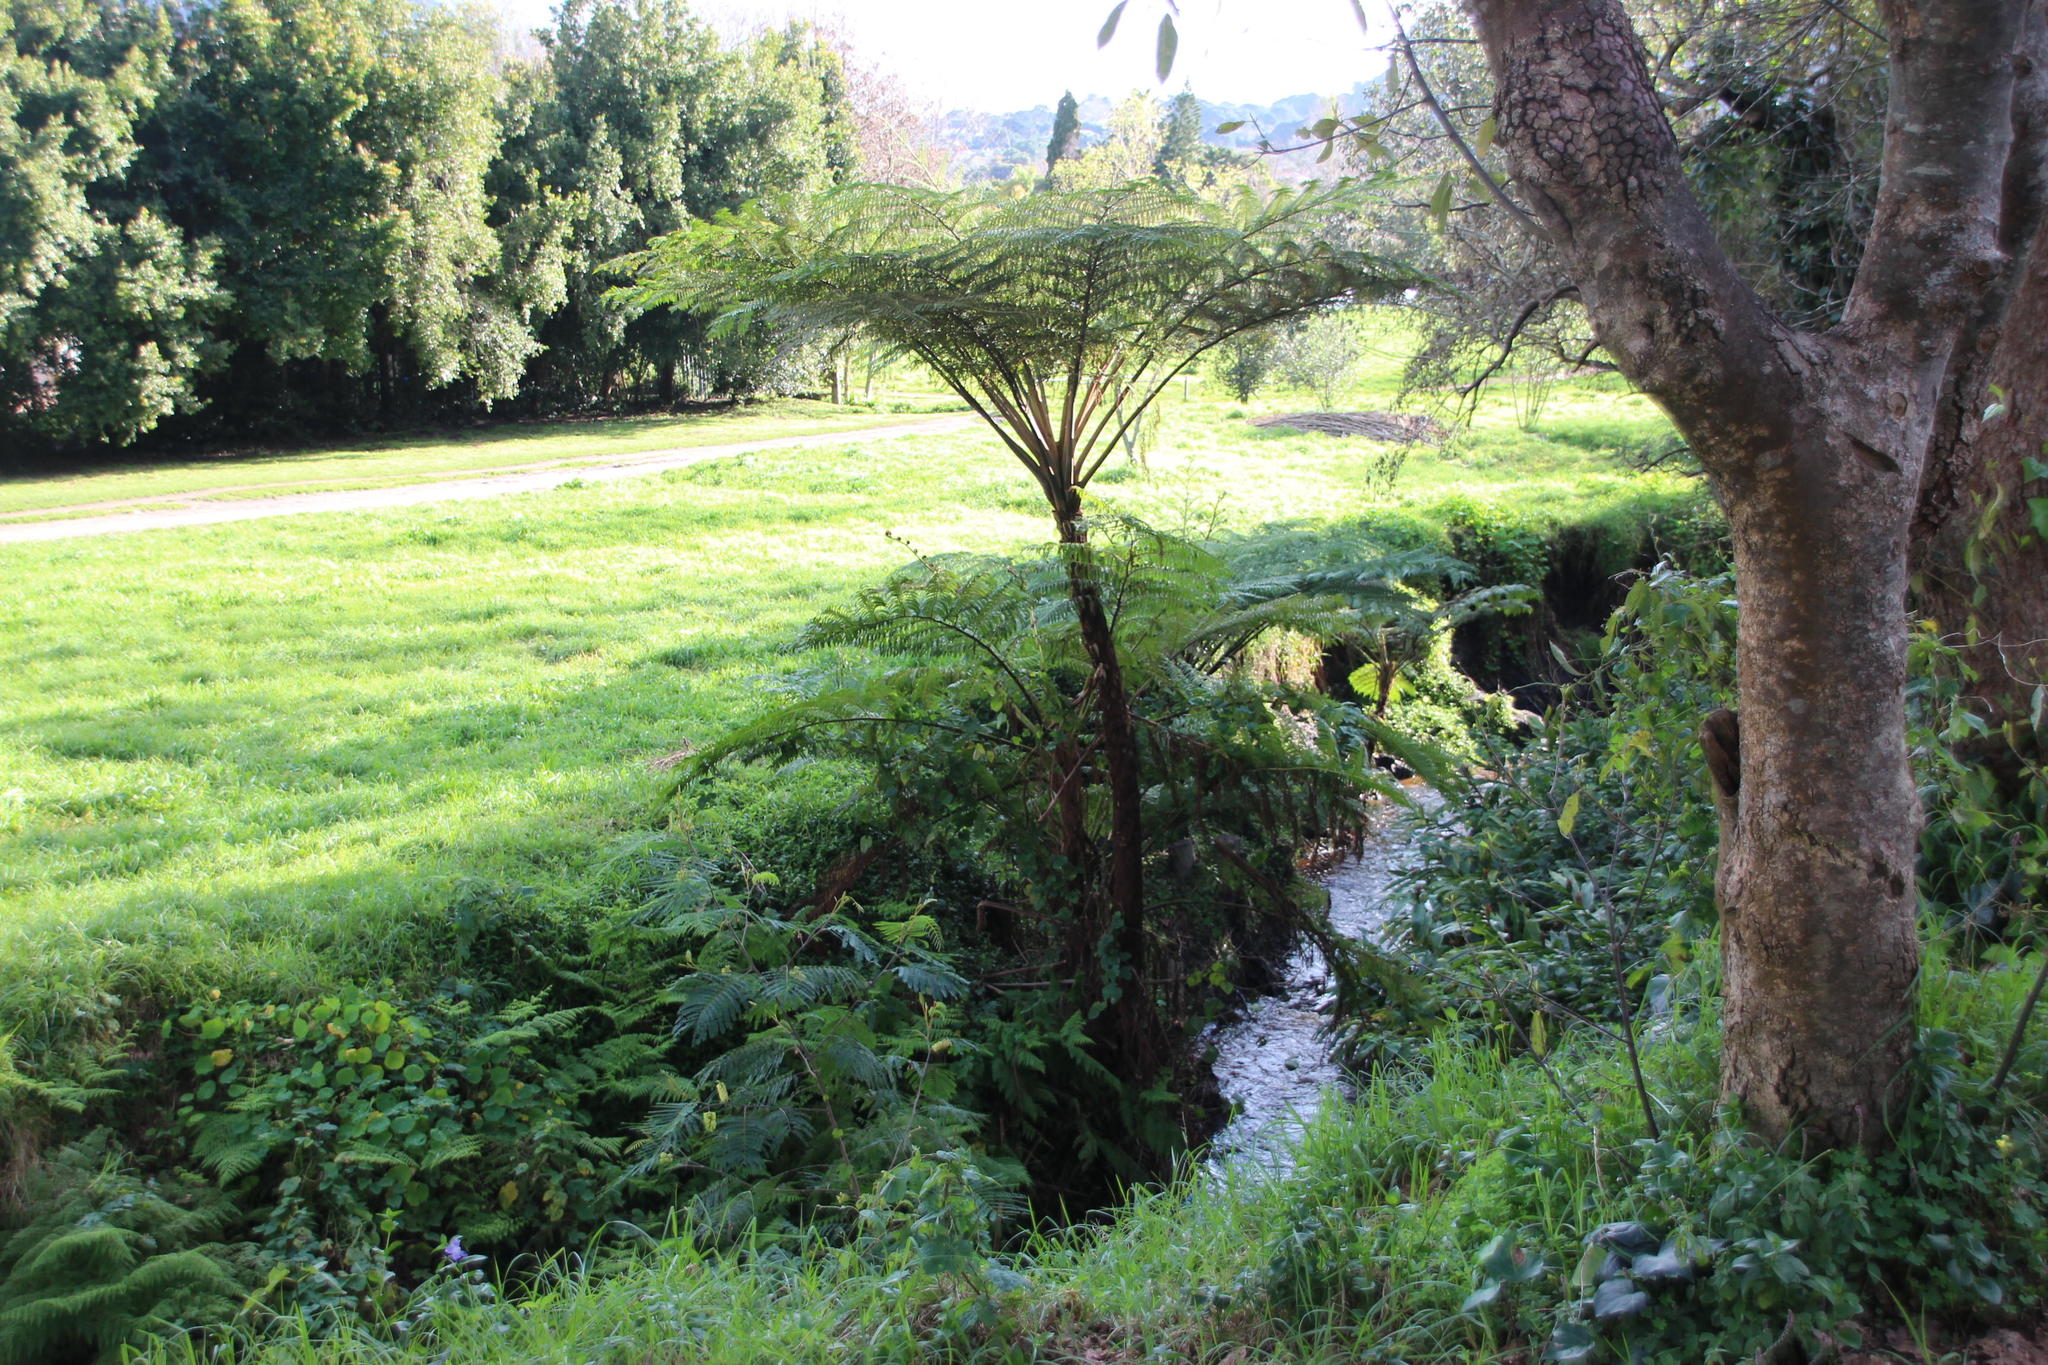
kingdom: Plantae
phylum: Tracheophyta
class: Polypodiopsida
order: Cyatheales
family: Cyatheaceae
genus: Sphaeropteris
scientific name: Sphaeropteris cooperi
